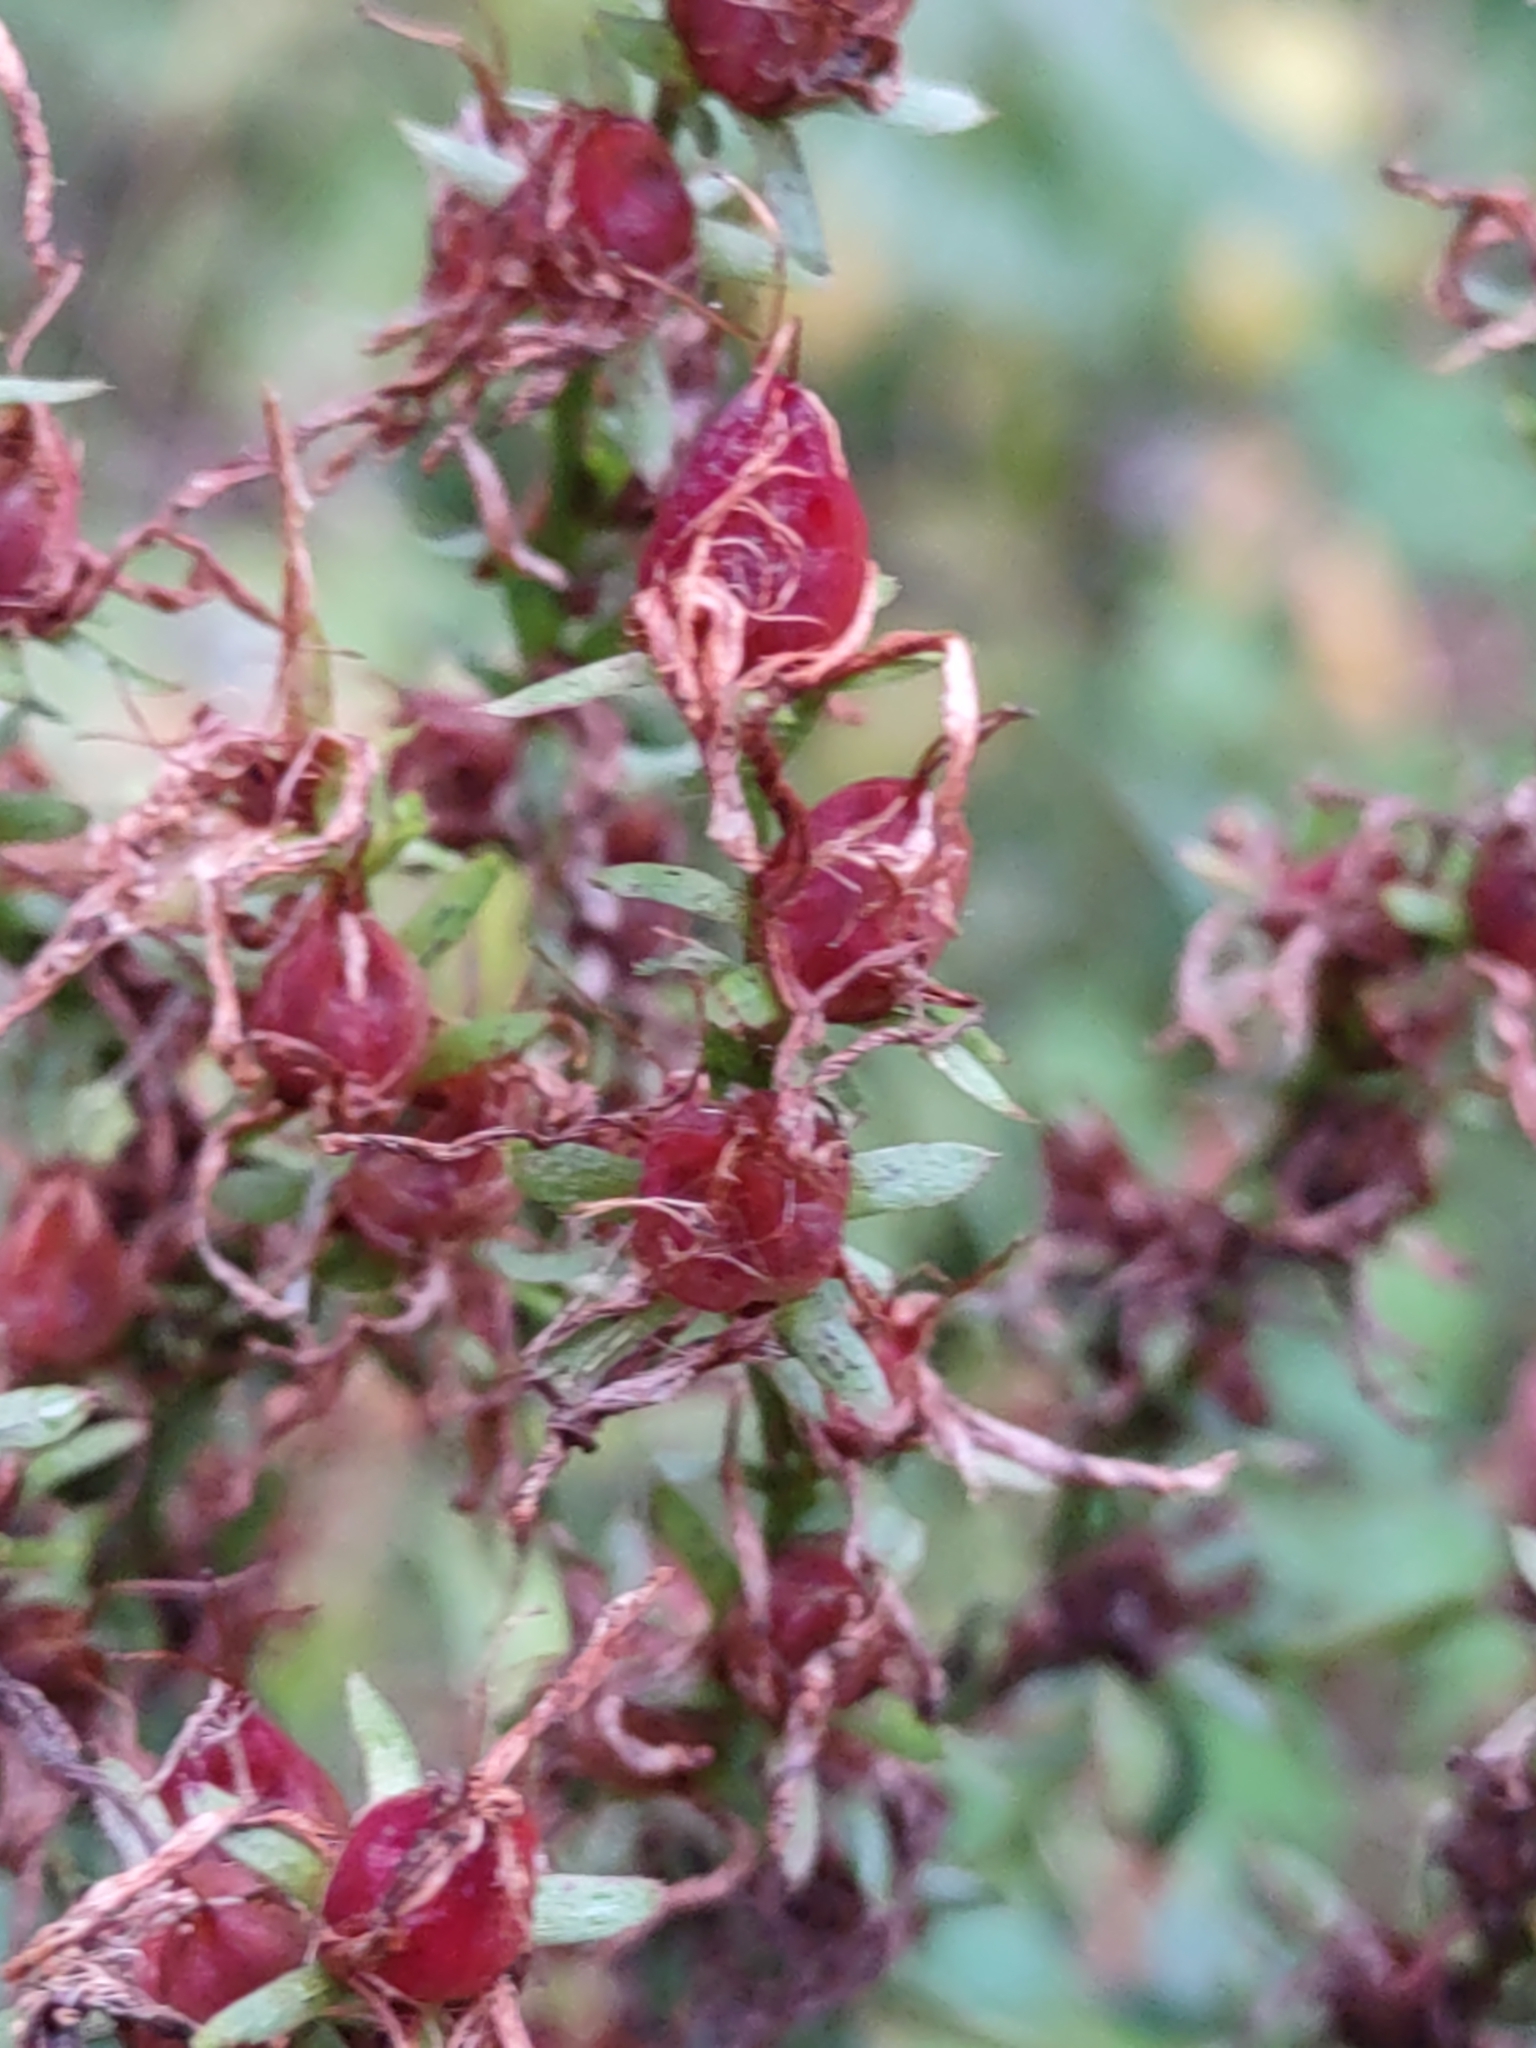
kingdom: Plantae
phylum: Tracheophyta
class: Magnoliopsida
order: Malpighiales
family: Hypericaceae
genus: Hypericum
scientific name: Hypericum perforatum
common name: Common st. johnswort
